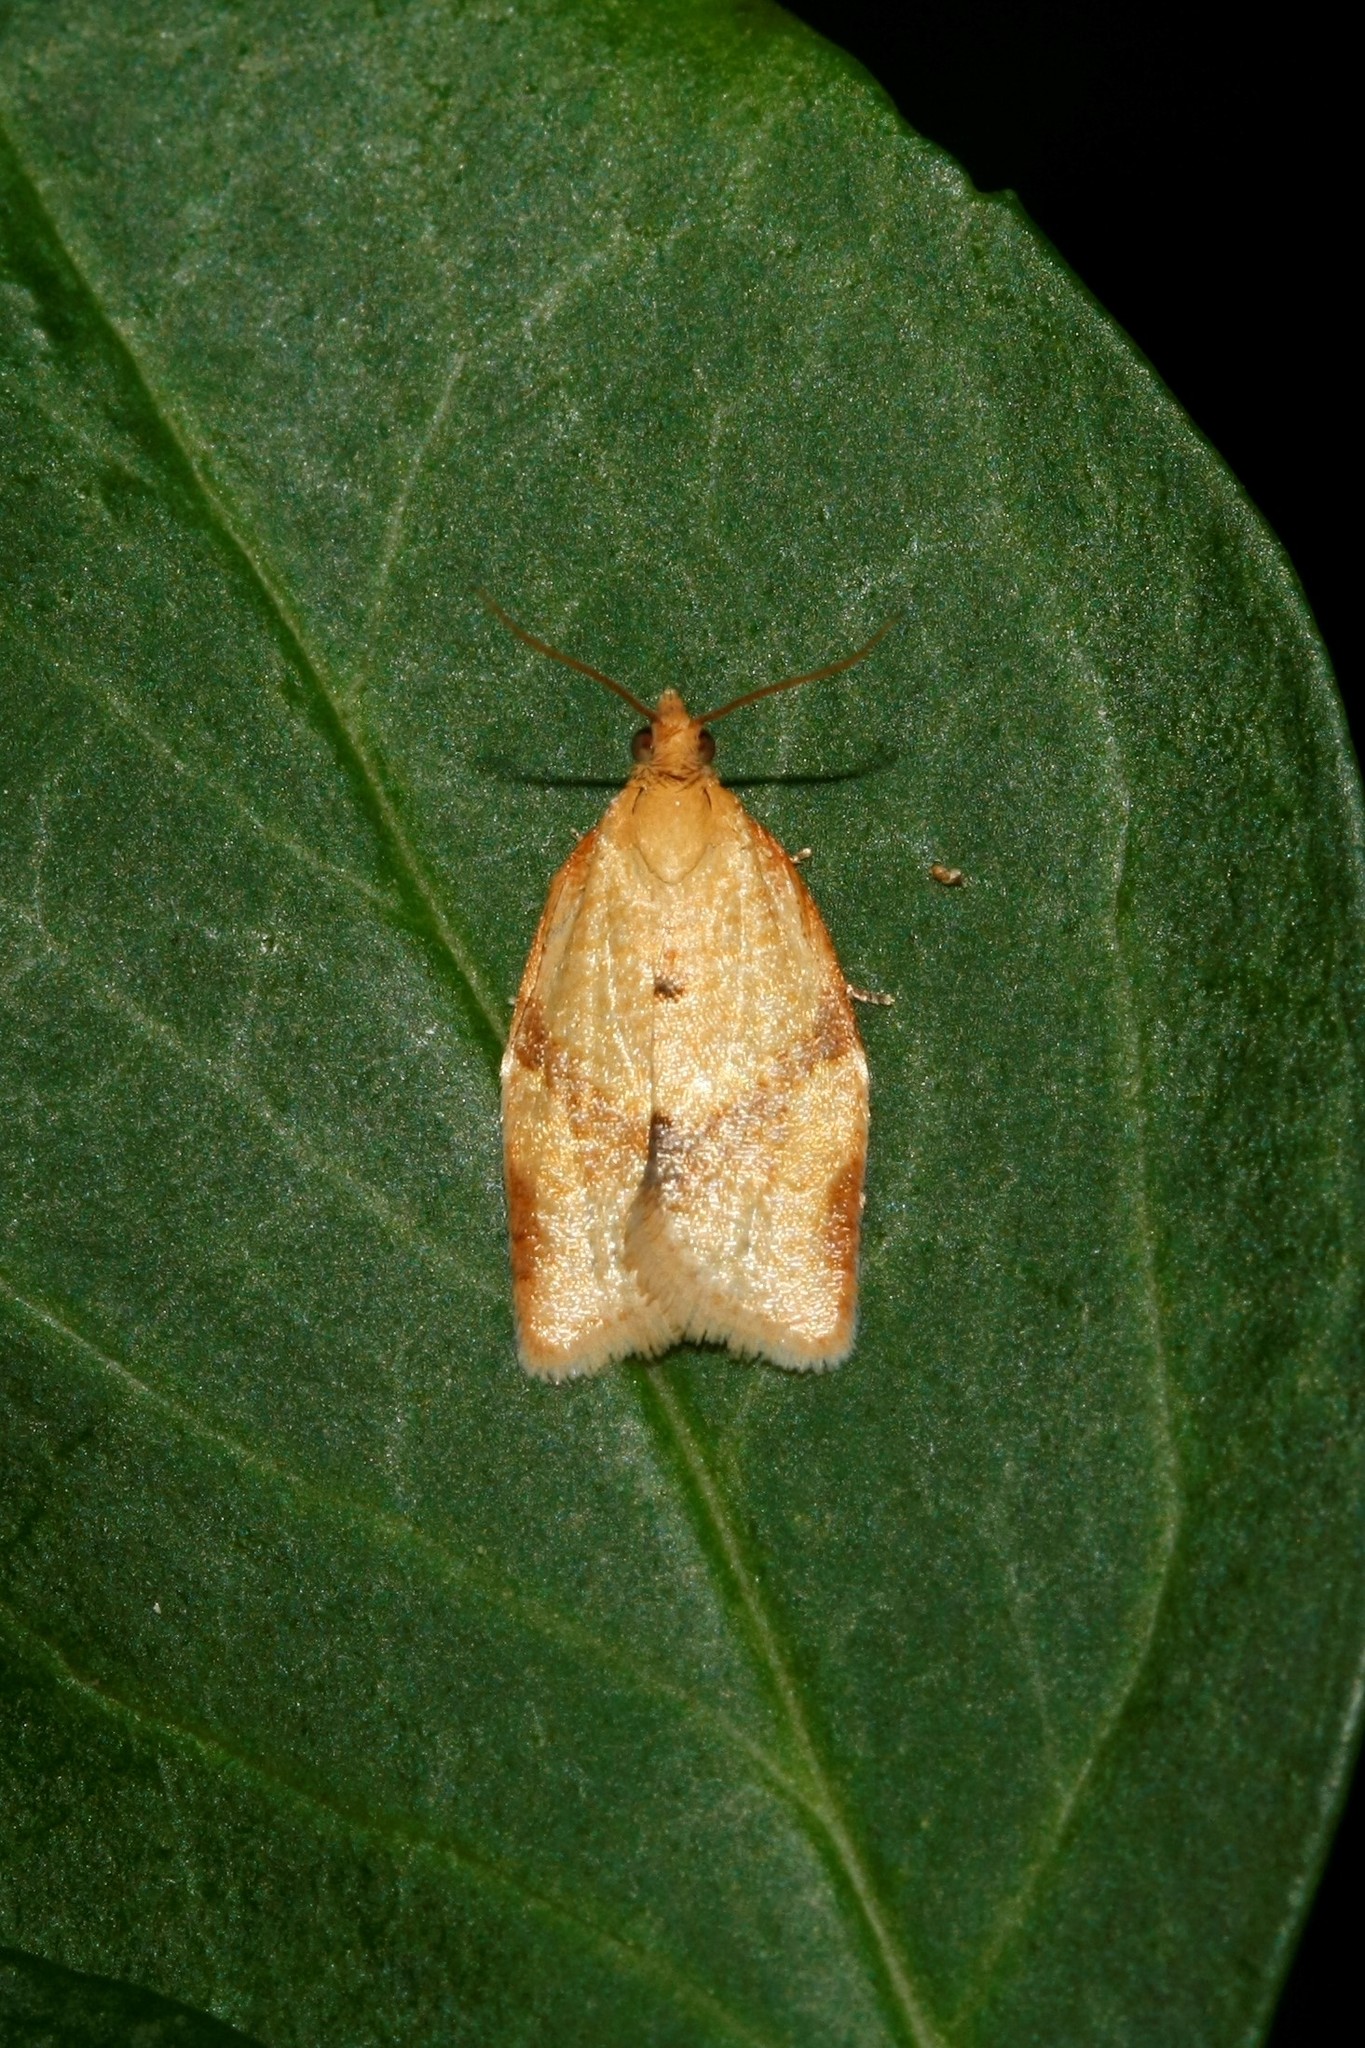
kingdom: Animalia
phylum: Arthropoda
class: Insecta
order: Lepidoptera
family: Tortricidae
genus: Clepsis
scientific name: Clepsis consimilana
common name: Privet tortrix
